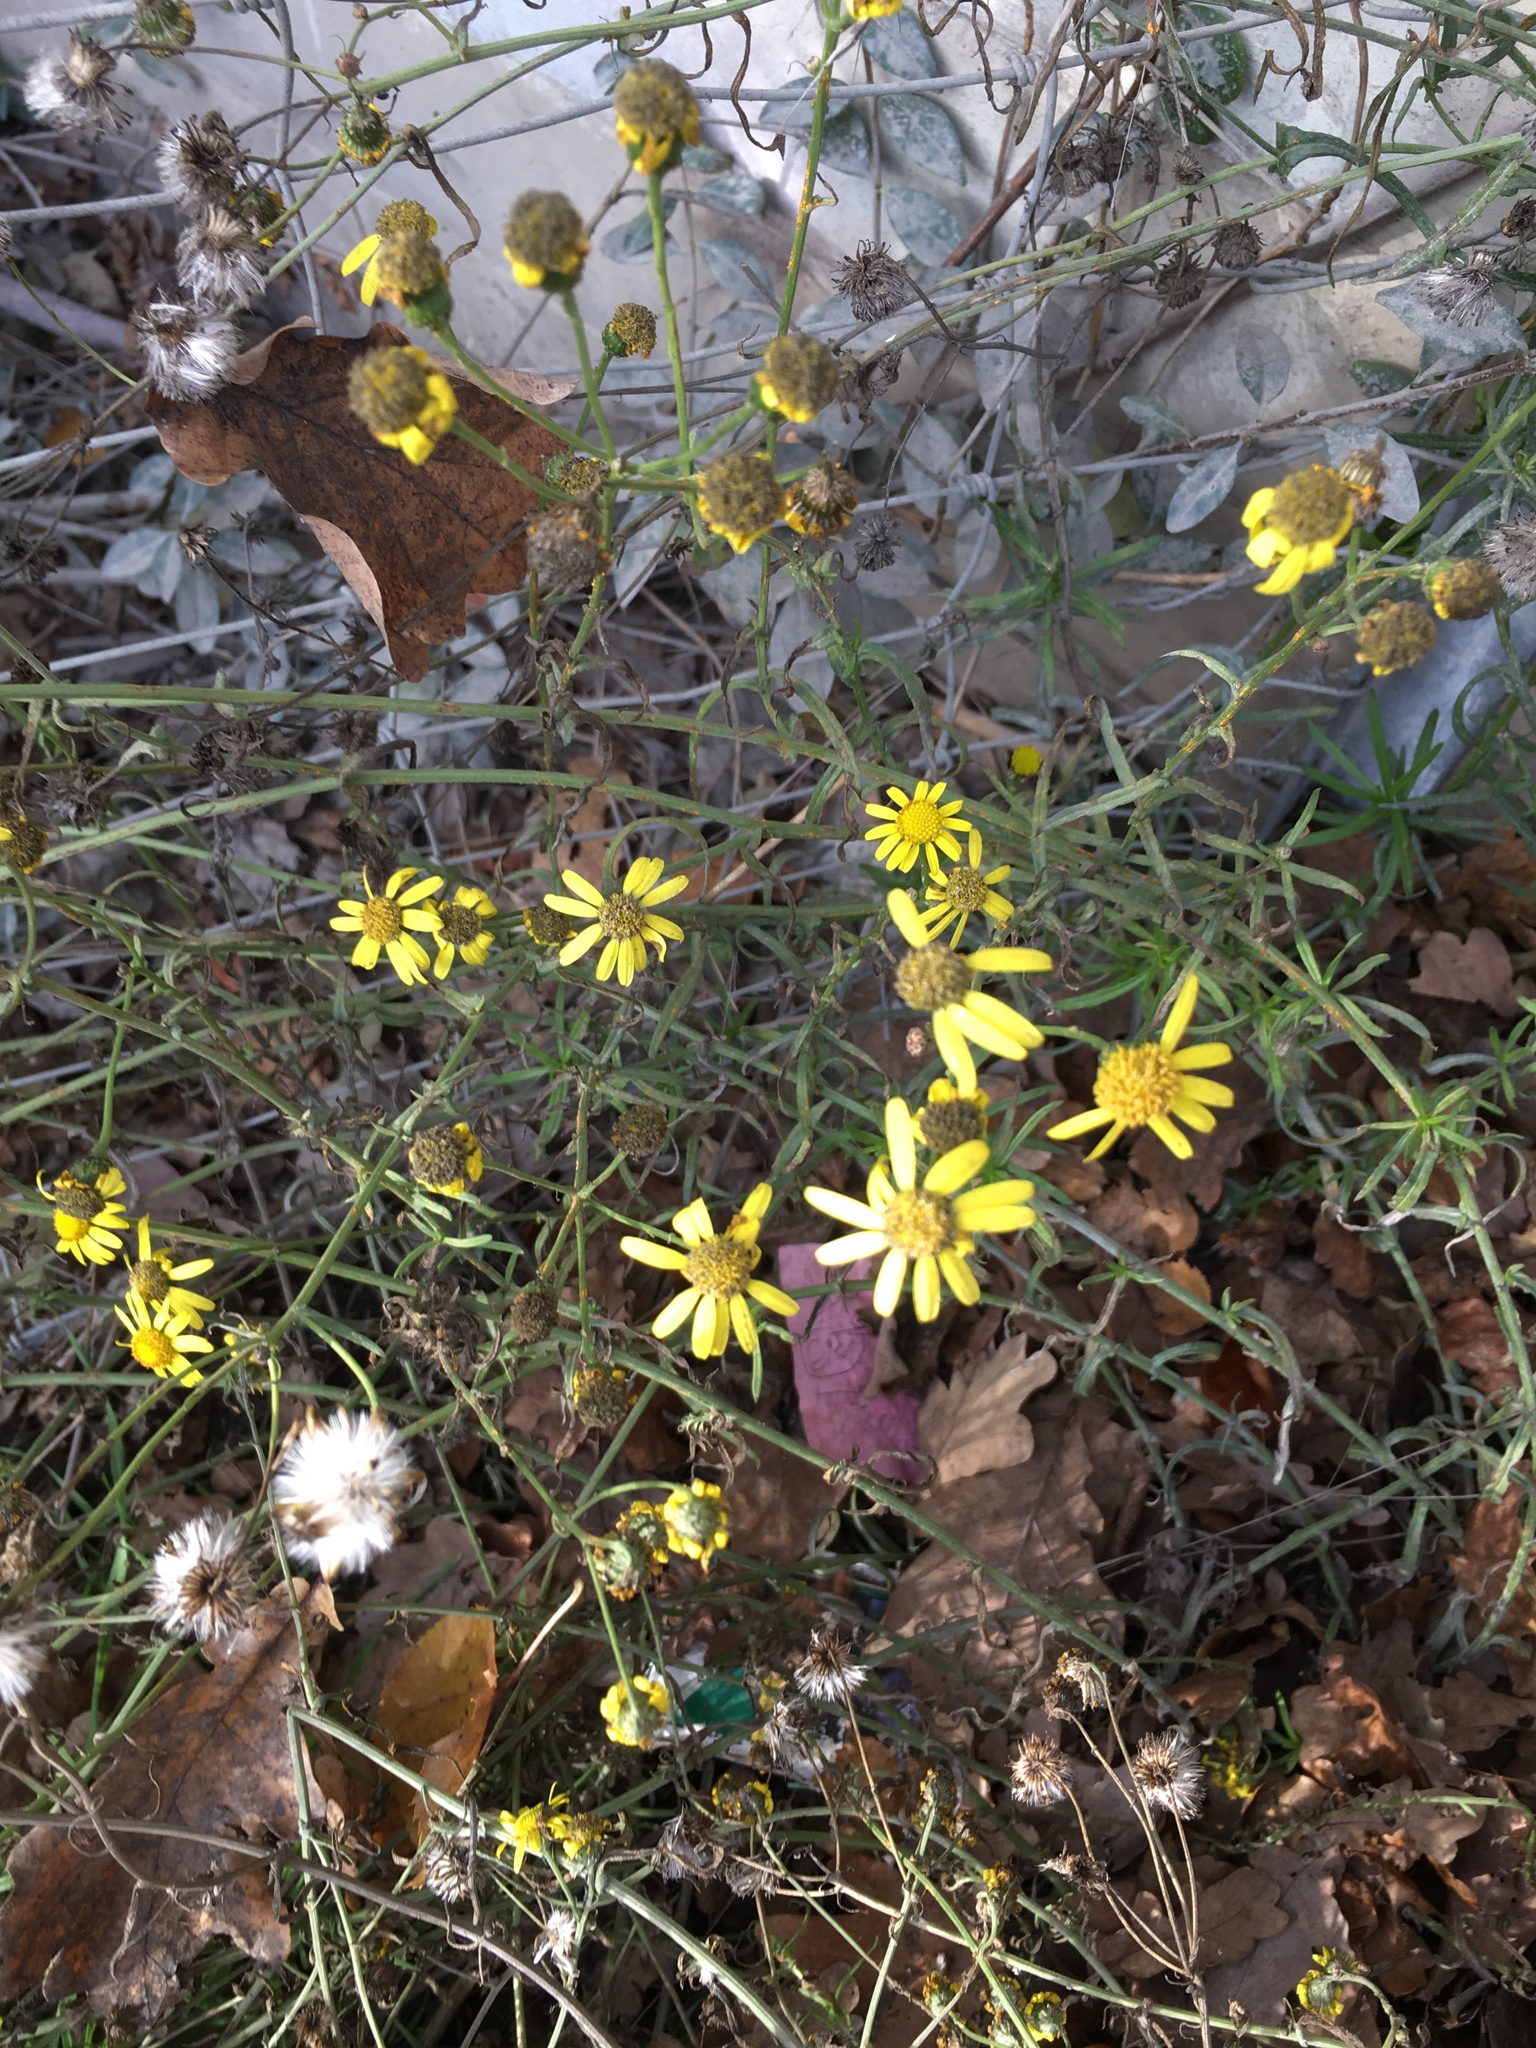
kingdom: Plantae
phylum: Tracheophyta
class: Magnoliopsida
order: Asterales
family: Asteraceae
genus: Senecio
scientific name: Senecio inaequidens
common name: Narrow-leaved ragwort
